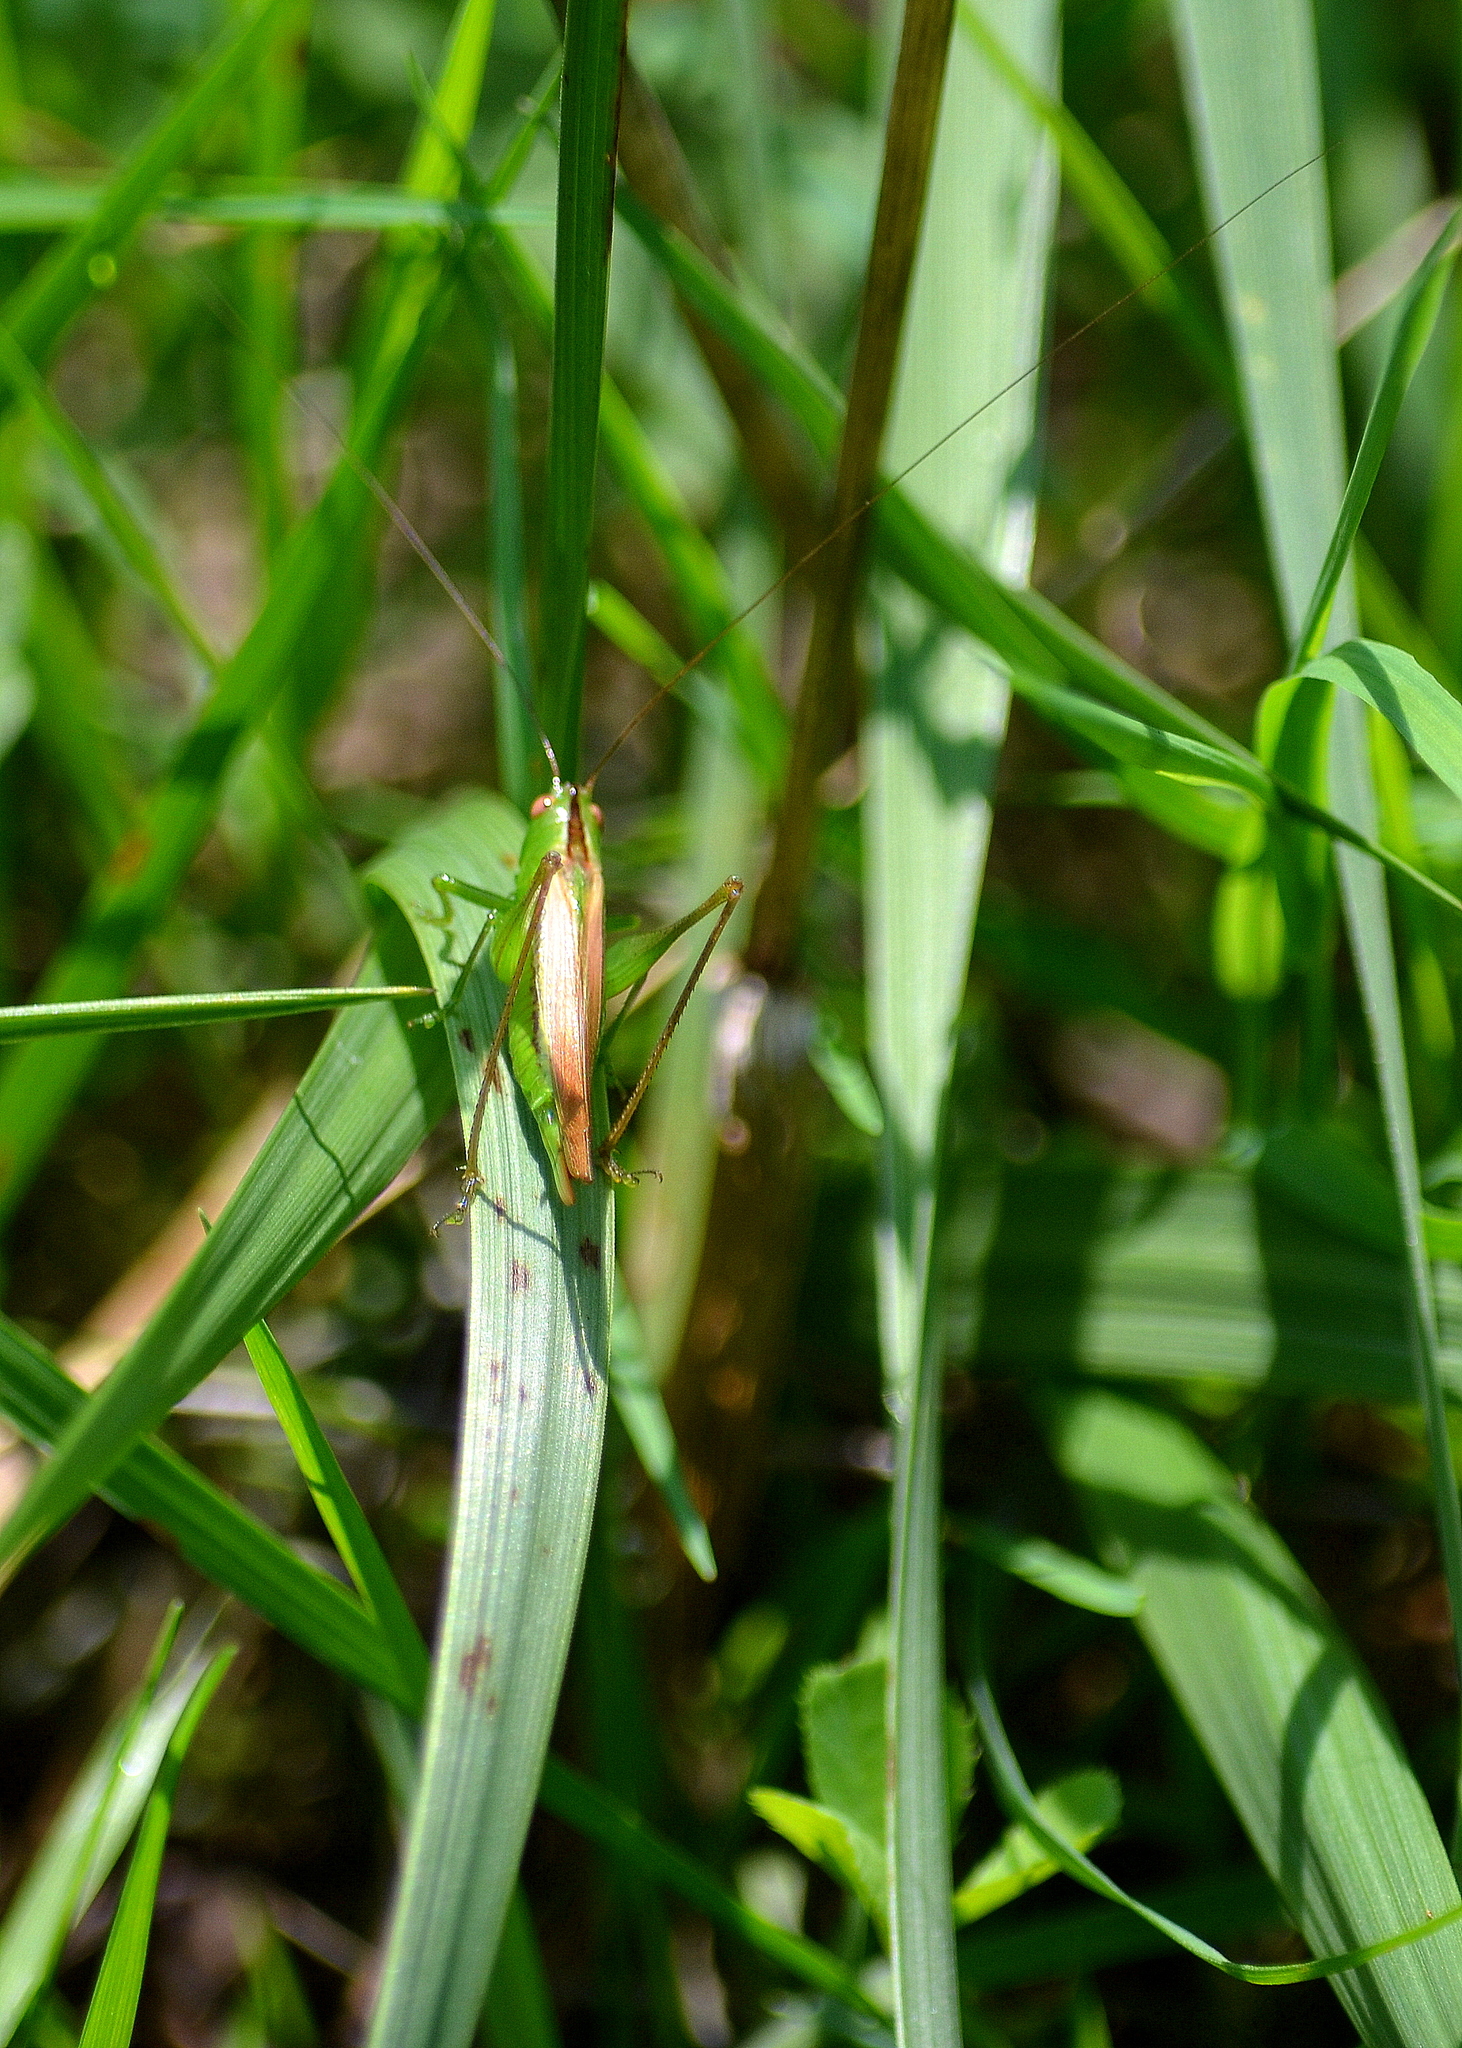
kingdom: Animalia
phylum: Arthropoda
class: Insecta
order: Orthoptera
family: Tettigoniidae
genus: Conocephalus
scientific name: Conocephalus fasciatus
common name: Slender meadow katydid
